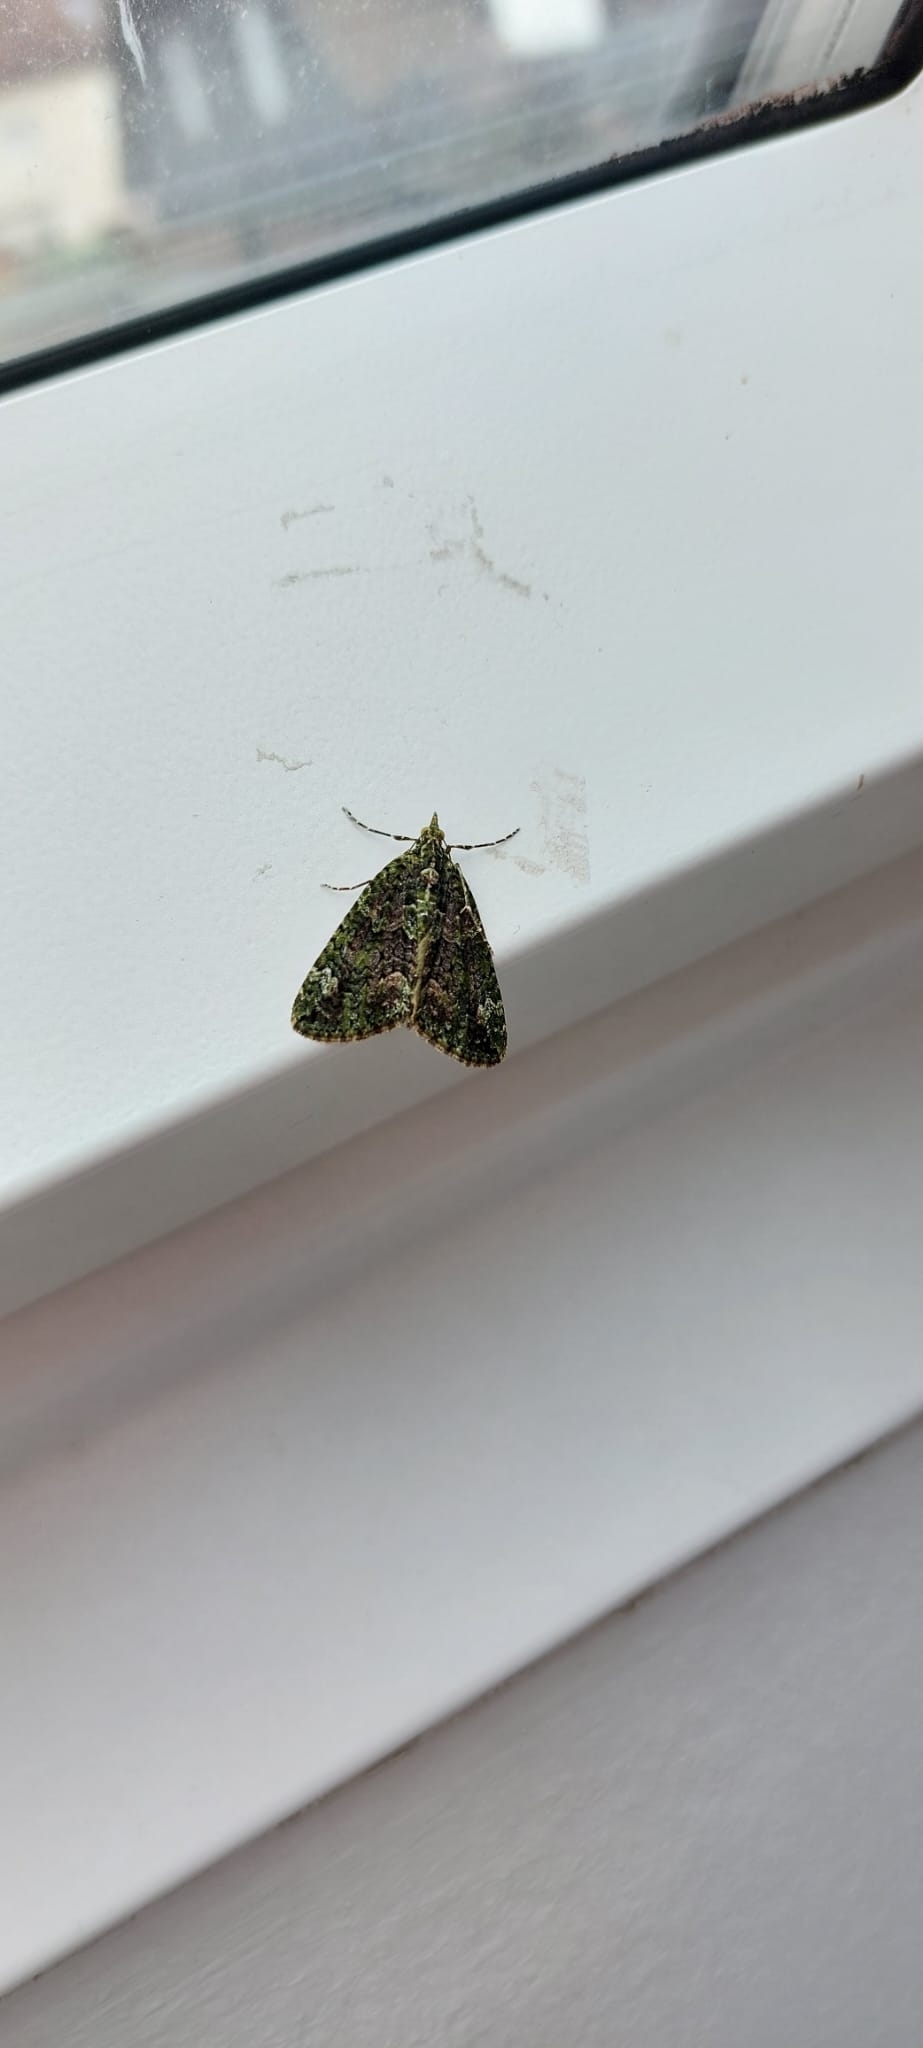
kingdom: Animalia
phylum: Arthropoda
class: Insecta
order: Lepidoptera
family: Geometridae
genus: Chloroclysta
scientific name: Chloroclysta siterata
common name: Red-green carpet
